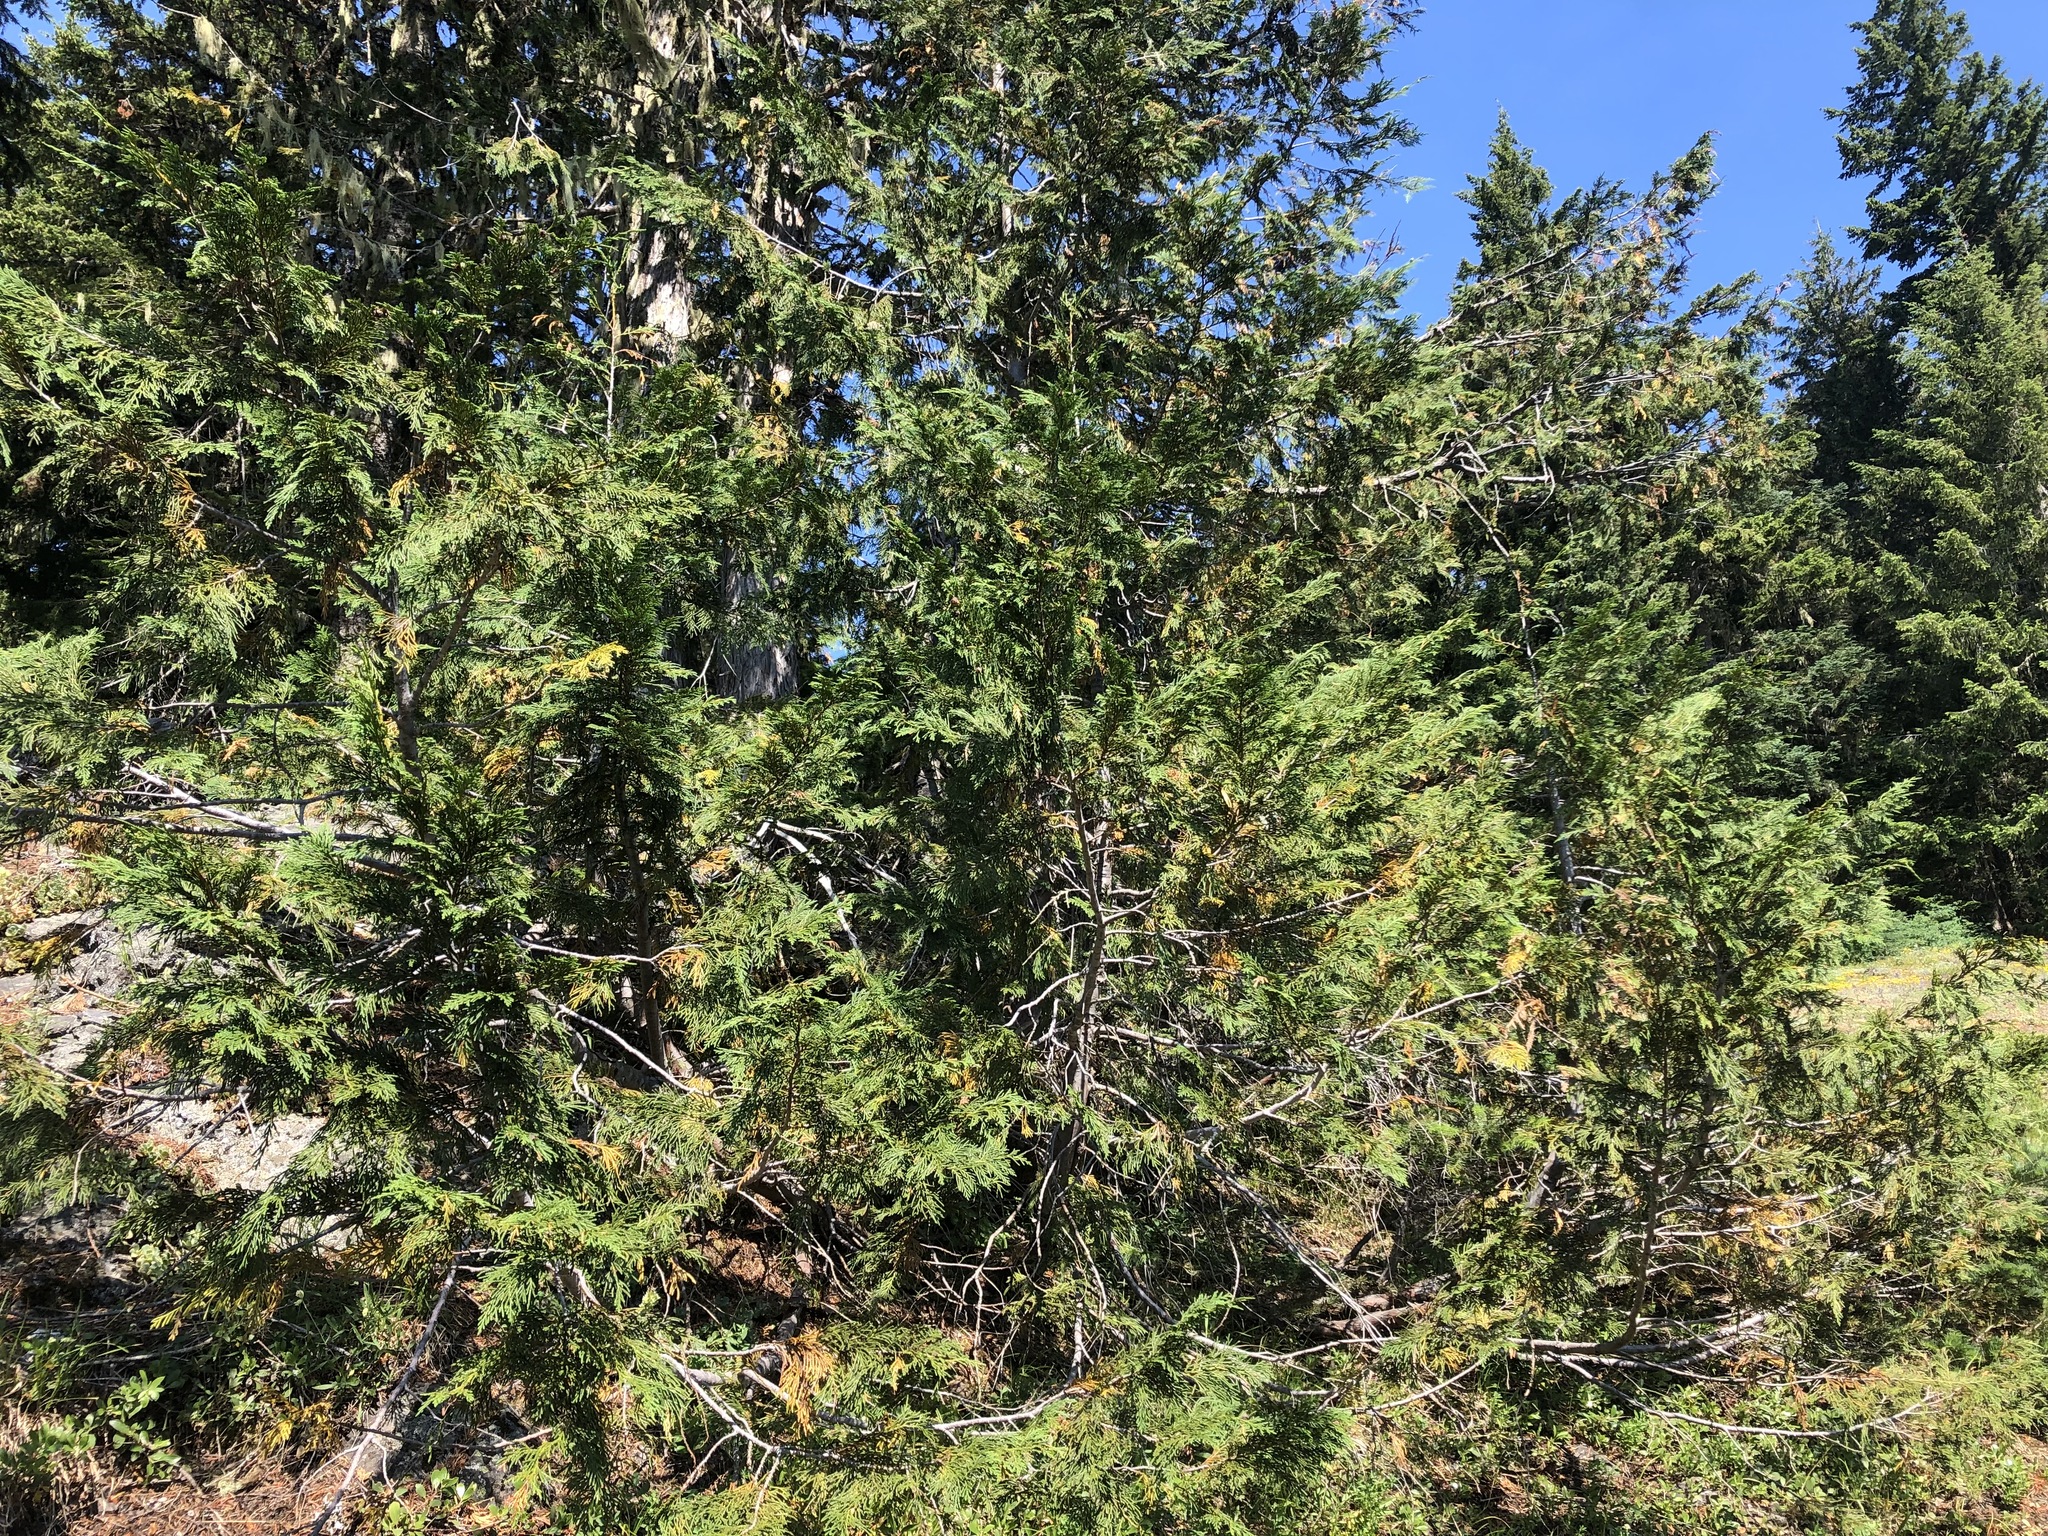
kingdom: Plantae
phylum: Tracheophyta
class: Pinopsida
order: Pinales
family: Cupressaceae
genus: Xanthocyparis
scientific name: Xanthocyparis nootkatensis
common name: Nootka cypress
